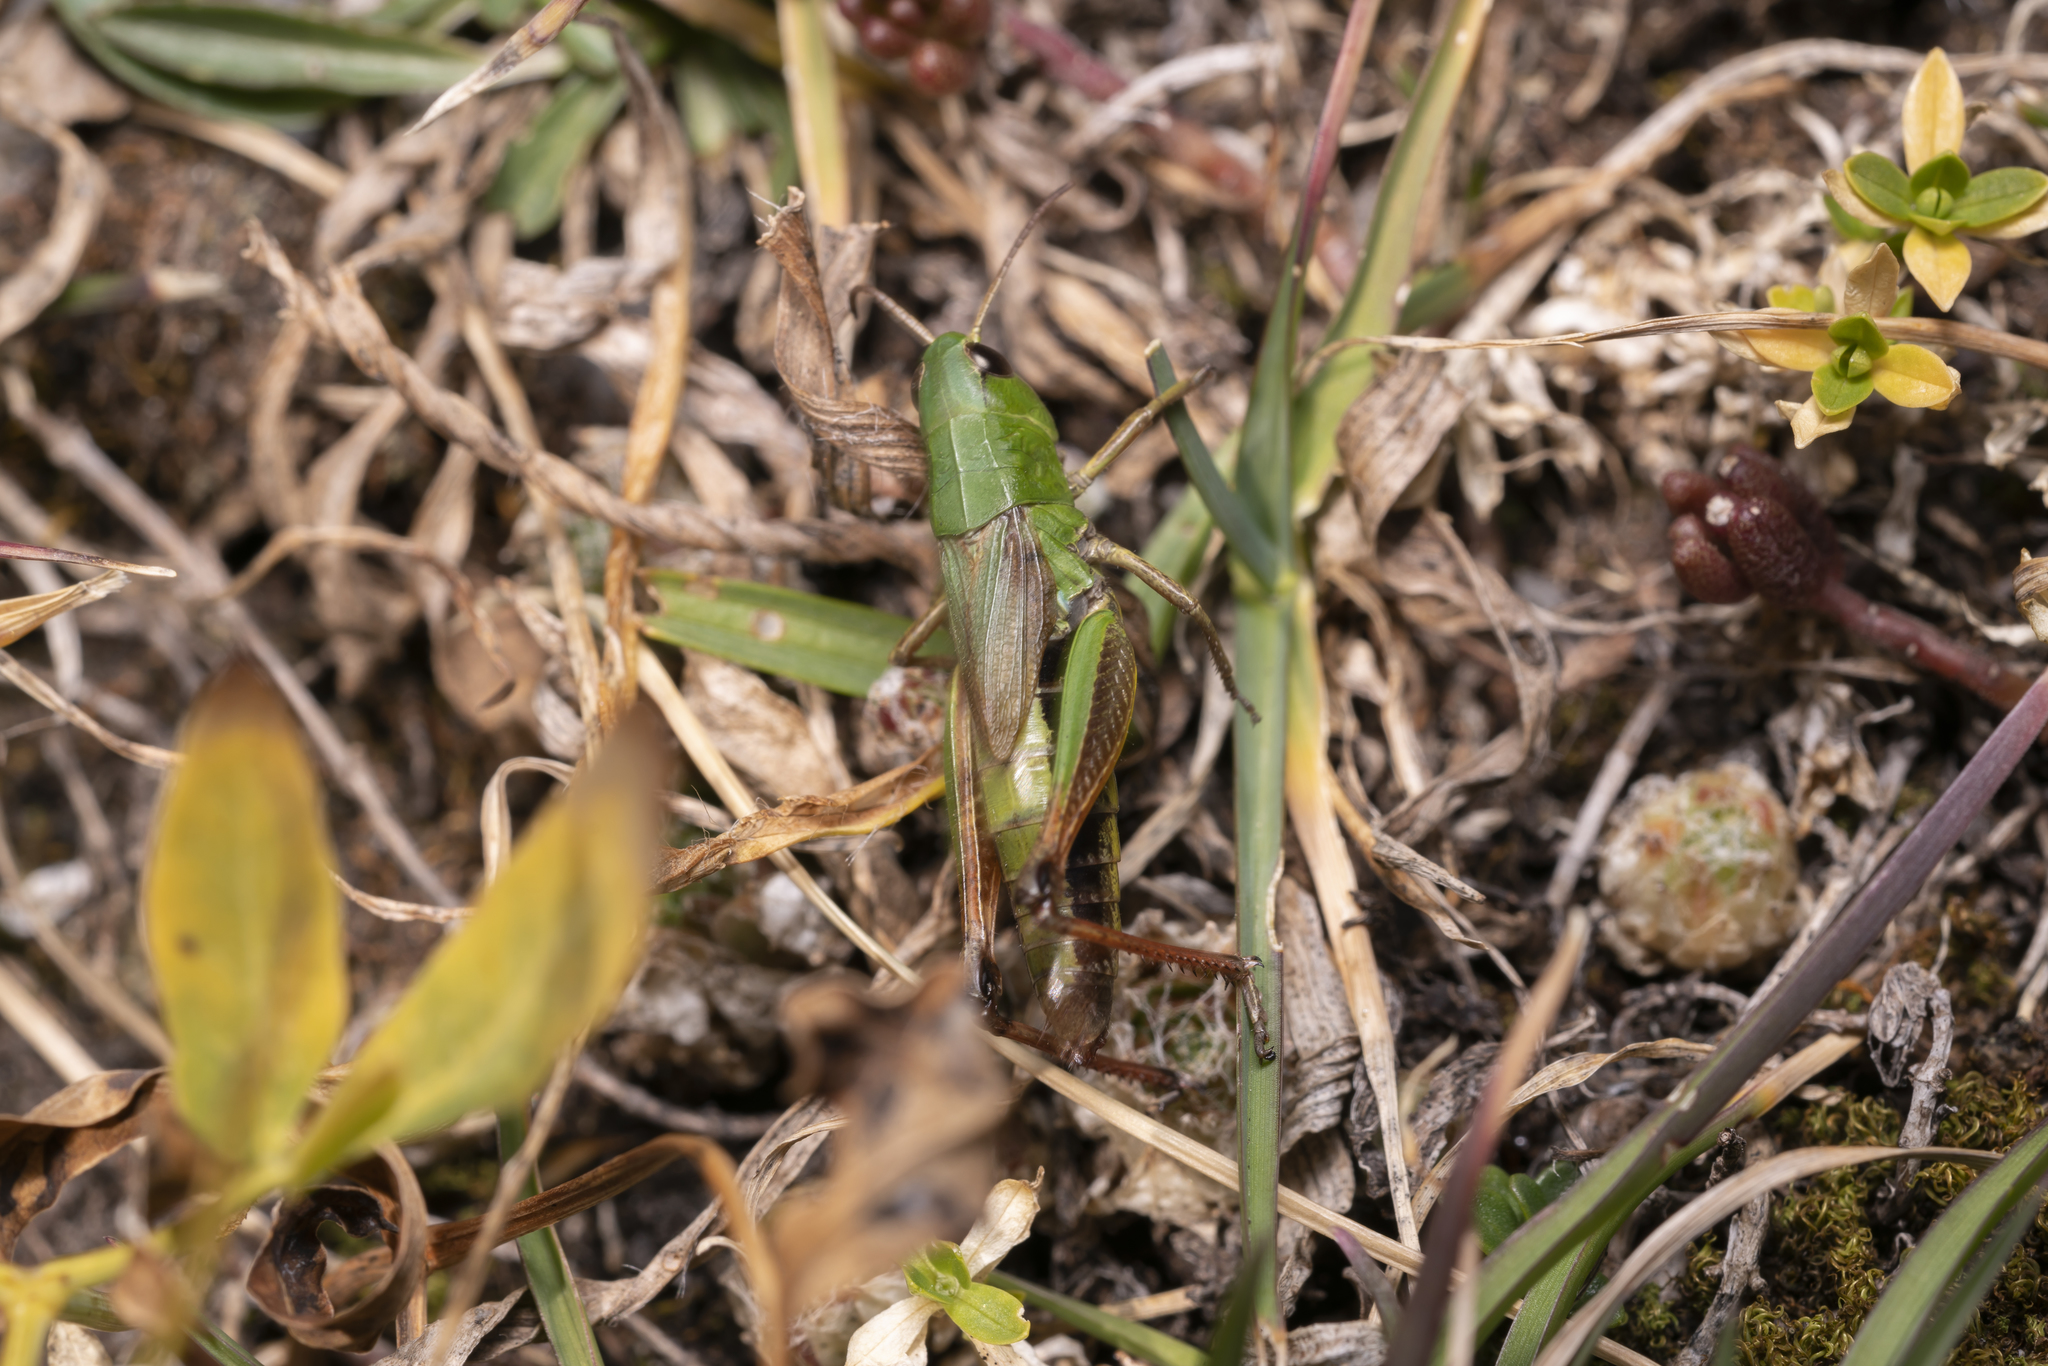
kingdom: Animalia
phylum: Arthropoda
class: Insecta
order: Orthoptera
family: Acrididae
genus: Pseudochorthippus
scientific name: Pseudochorthippus parallelus
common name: Meadow grasshopper
